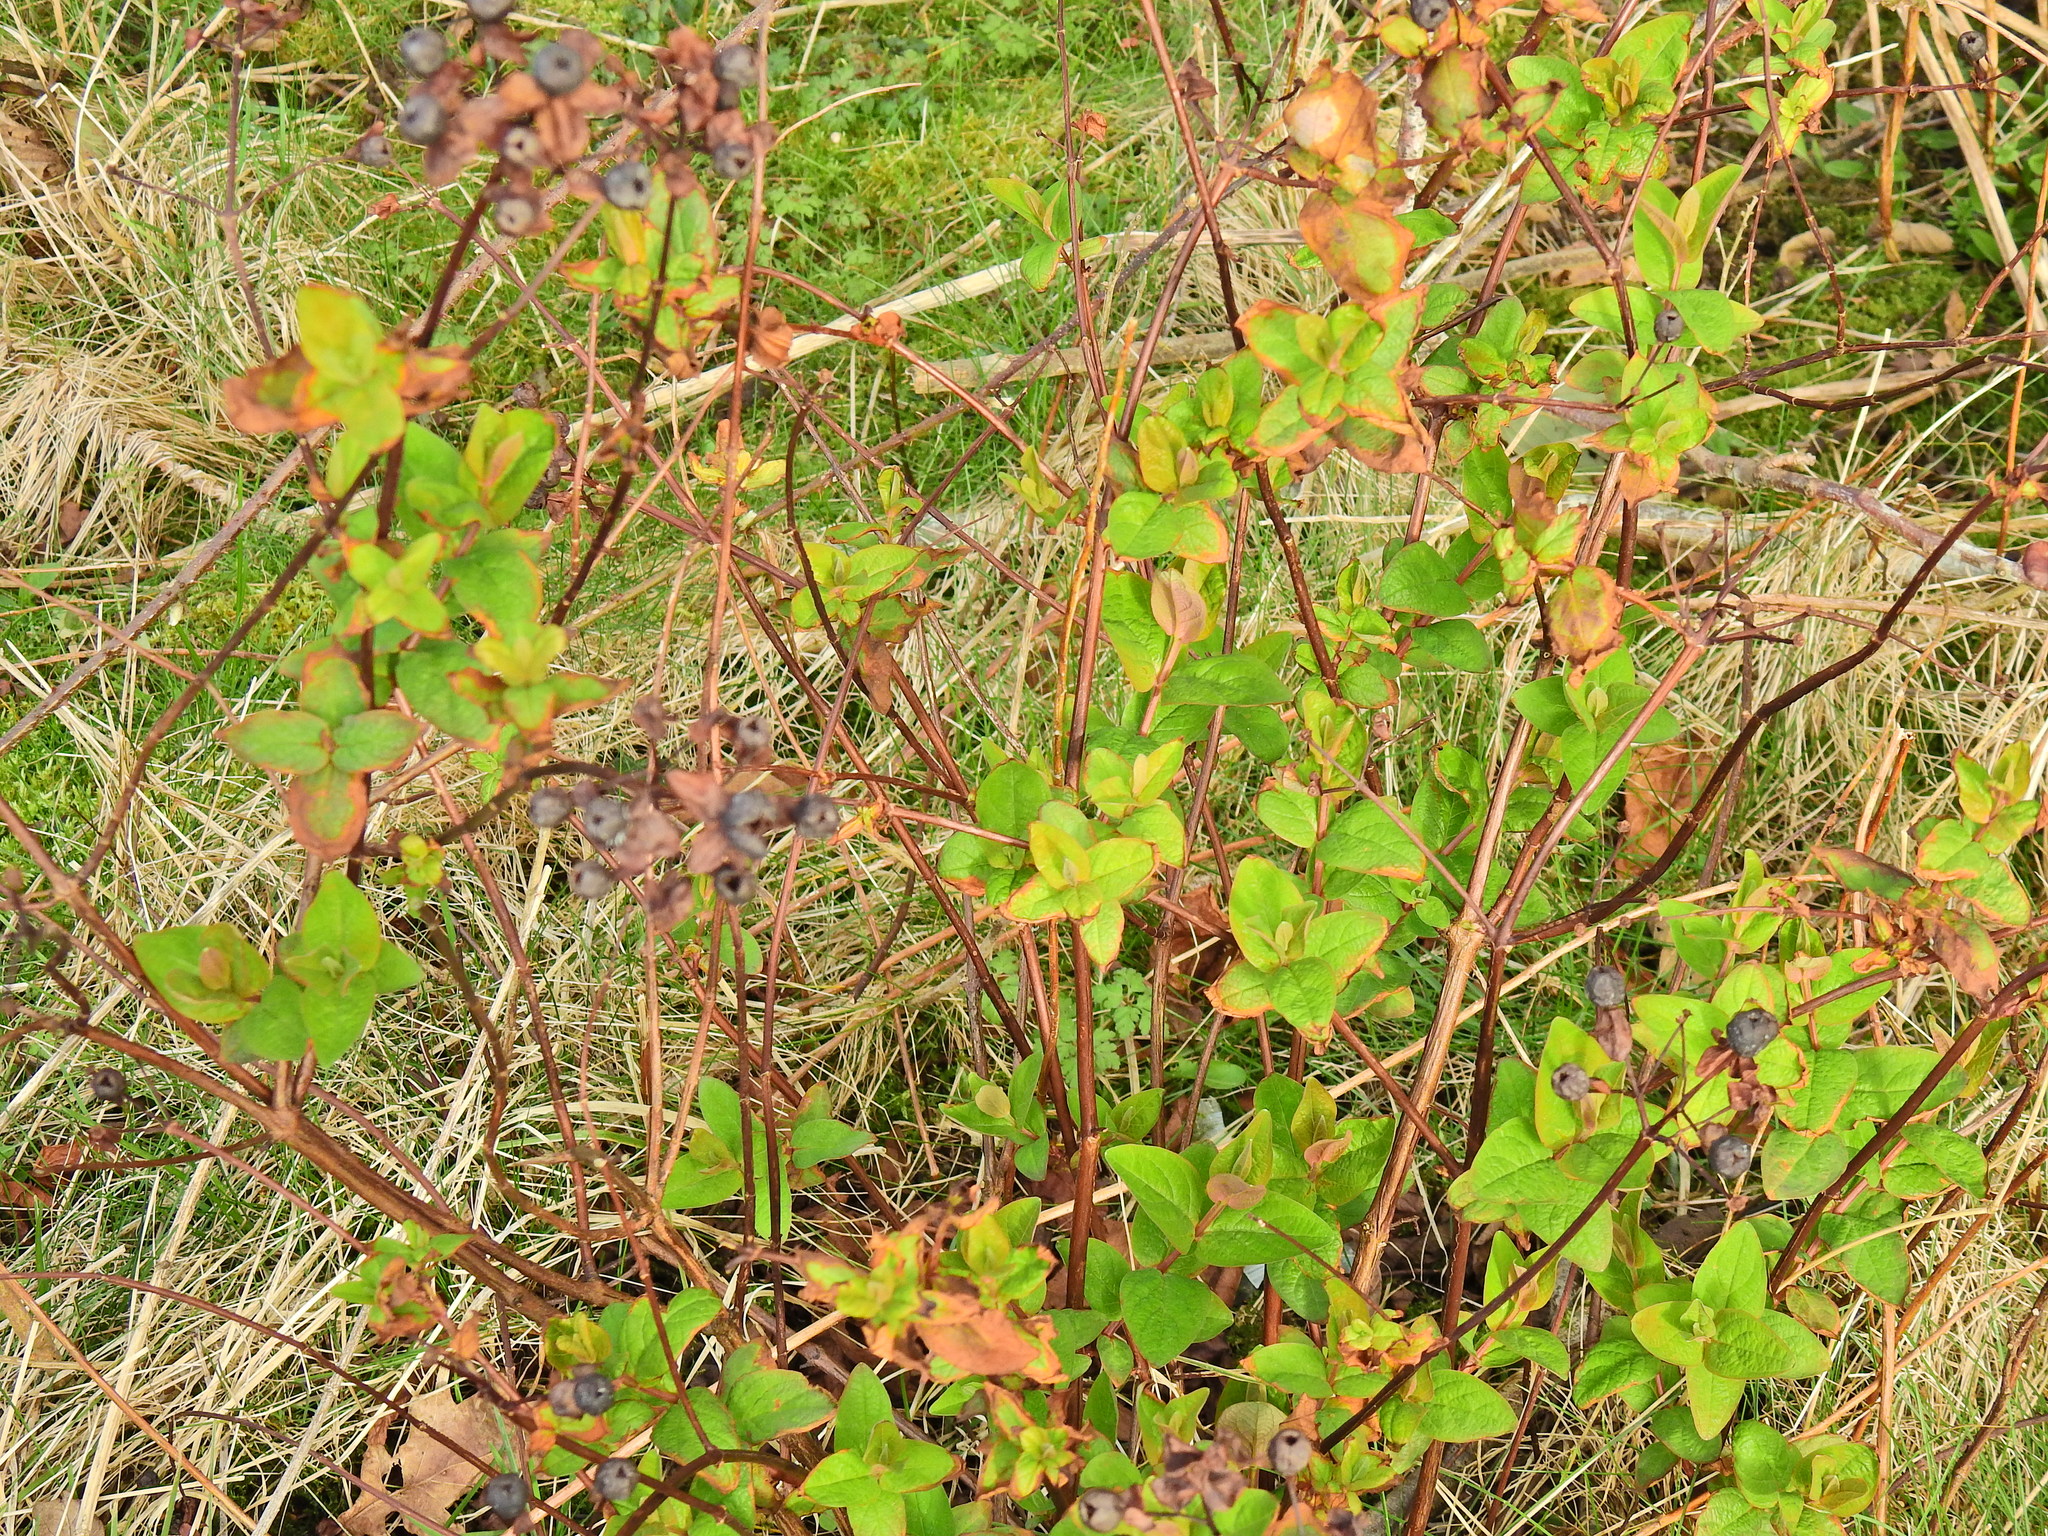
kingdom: Plantae
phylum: Tracheophyta
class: Magnoliopsida
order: Malpighiales
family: Hypericaceae
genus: Hypericum
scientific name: Hypericum androsaemum
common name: Sweet-amber
